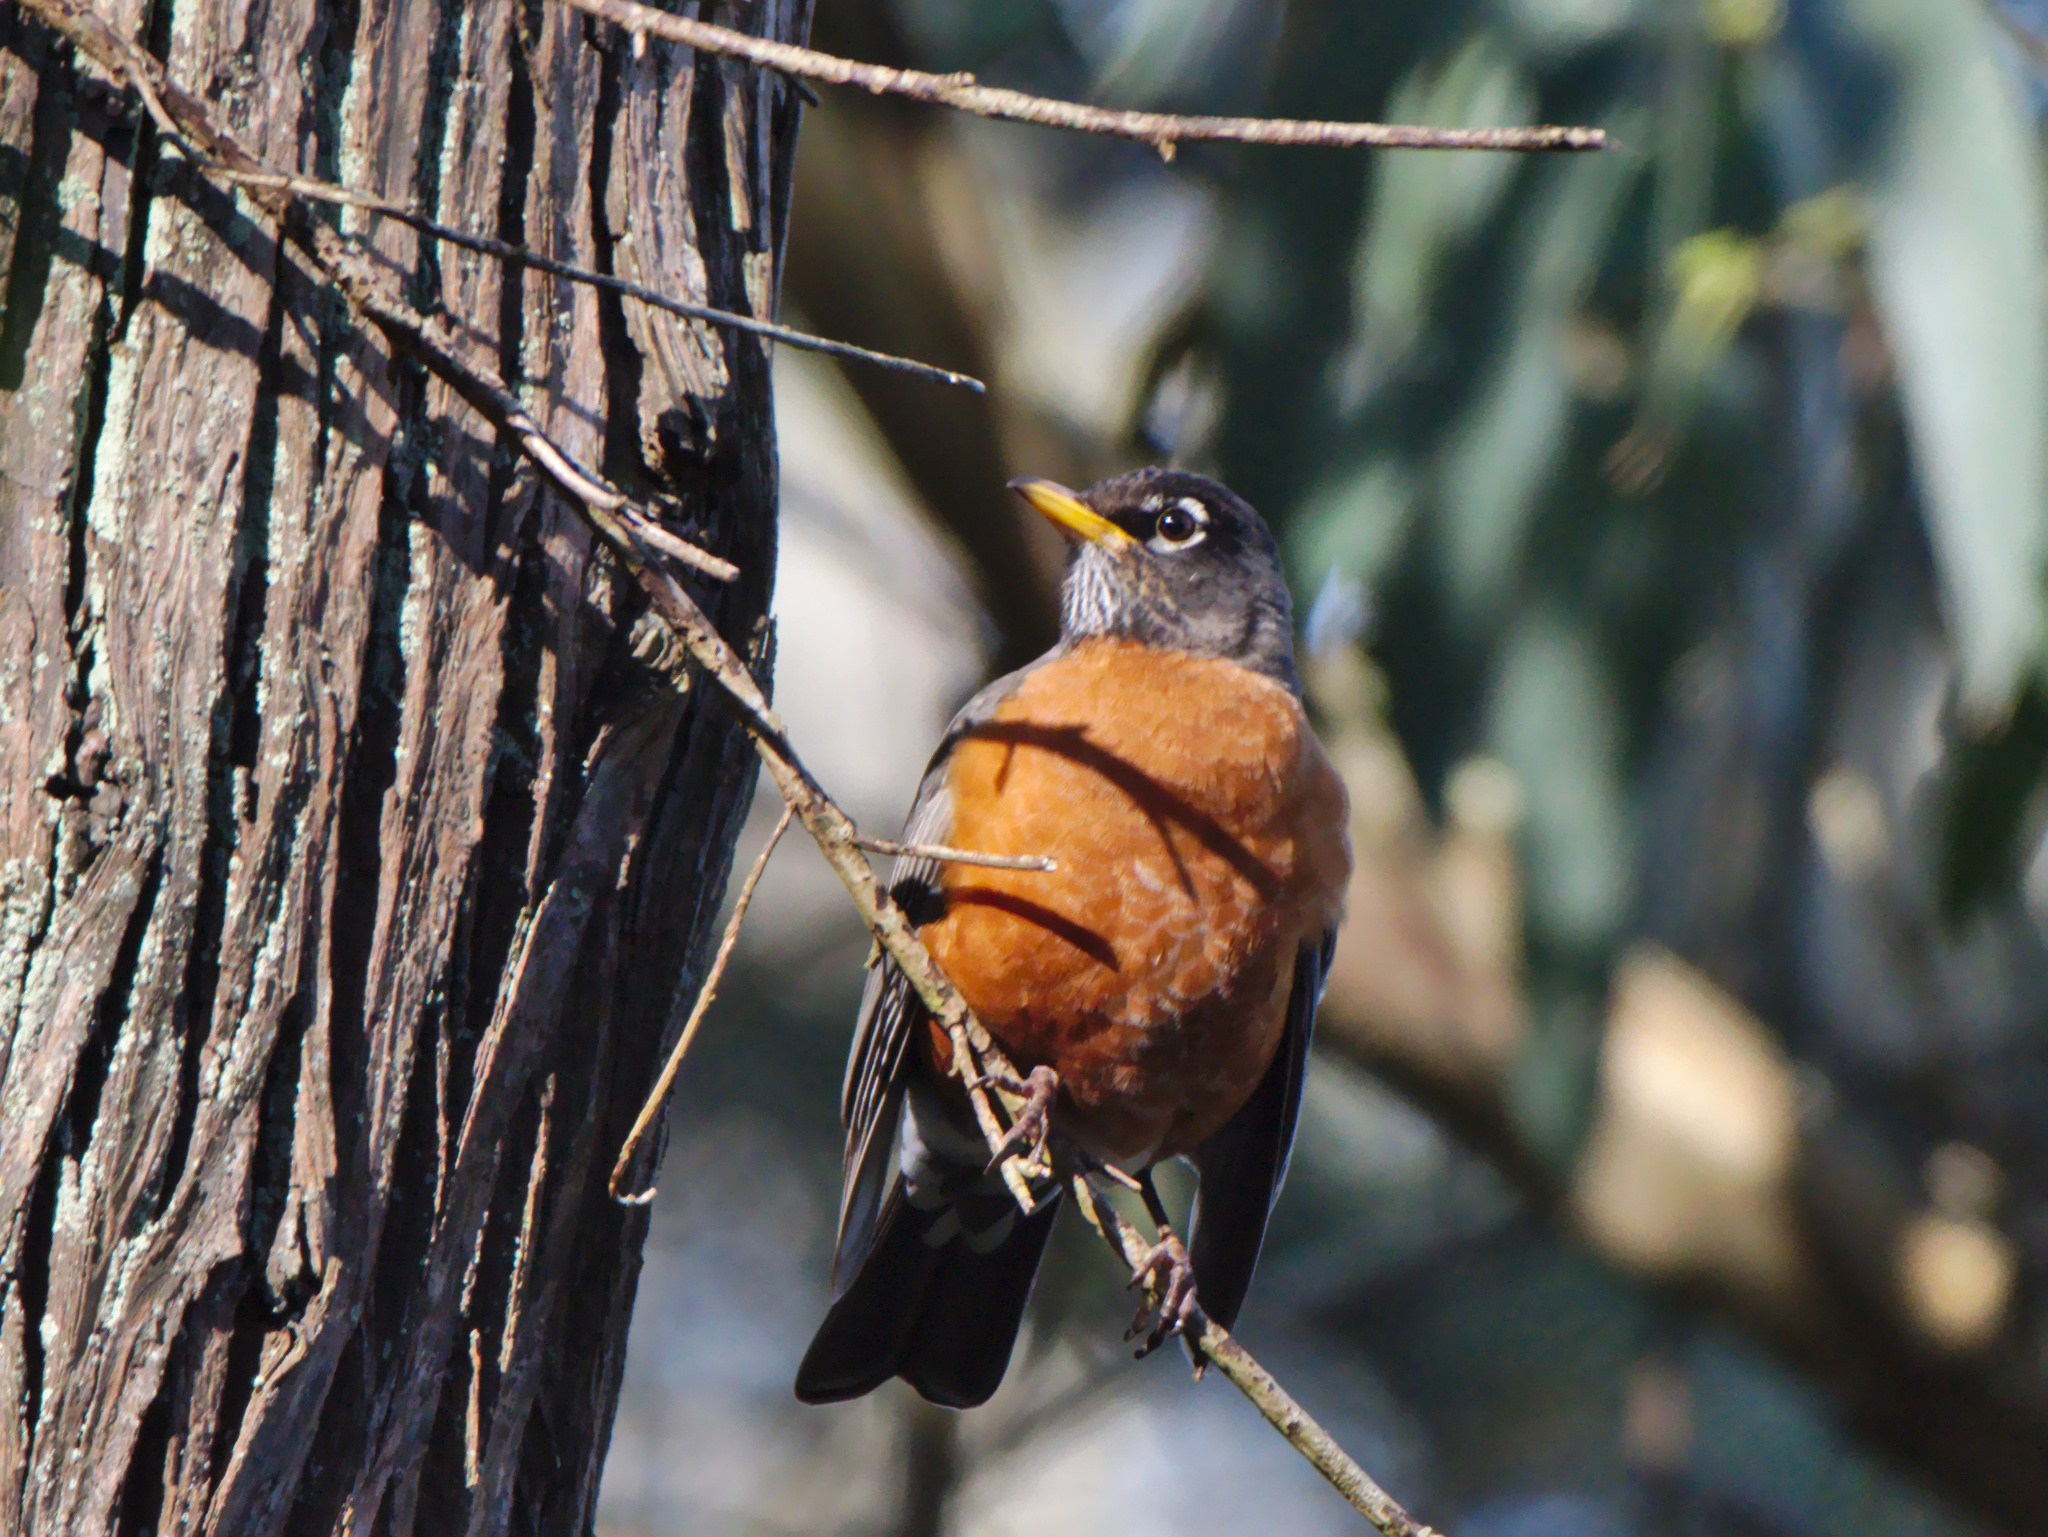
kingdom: Animalia
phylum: Chordata
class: Aves
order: Passeriformes
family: Turdidae
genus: Turdus
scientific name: Turdus migratorius
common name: American robin
